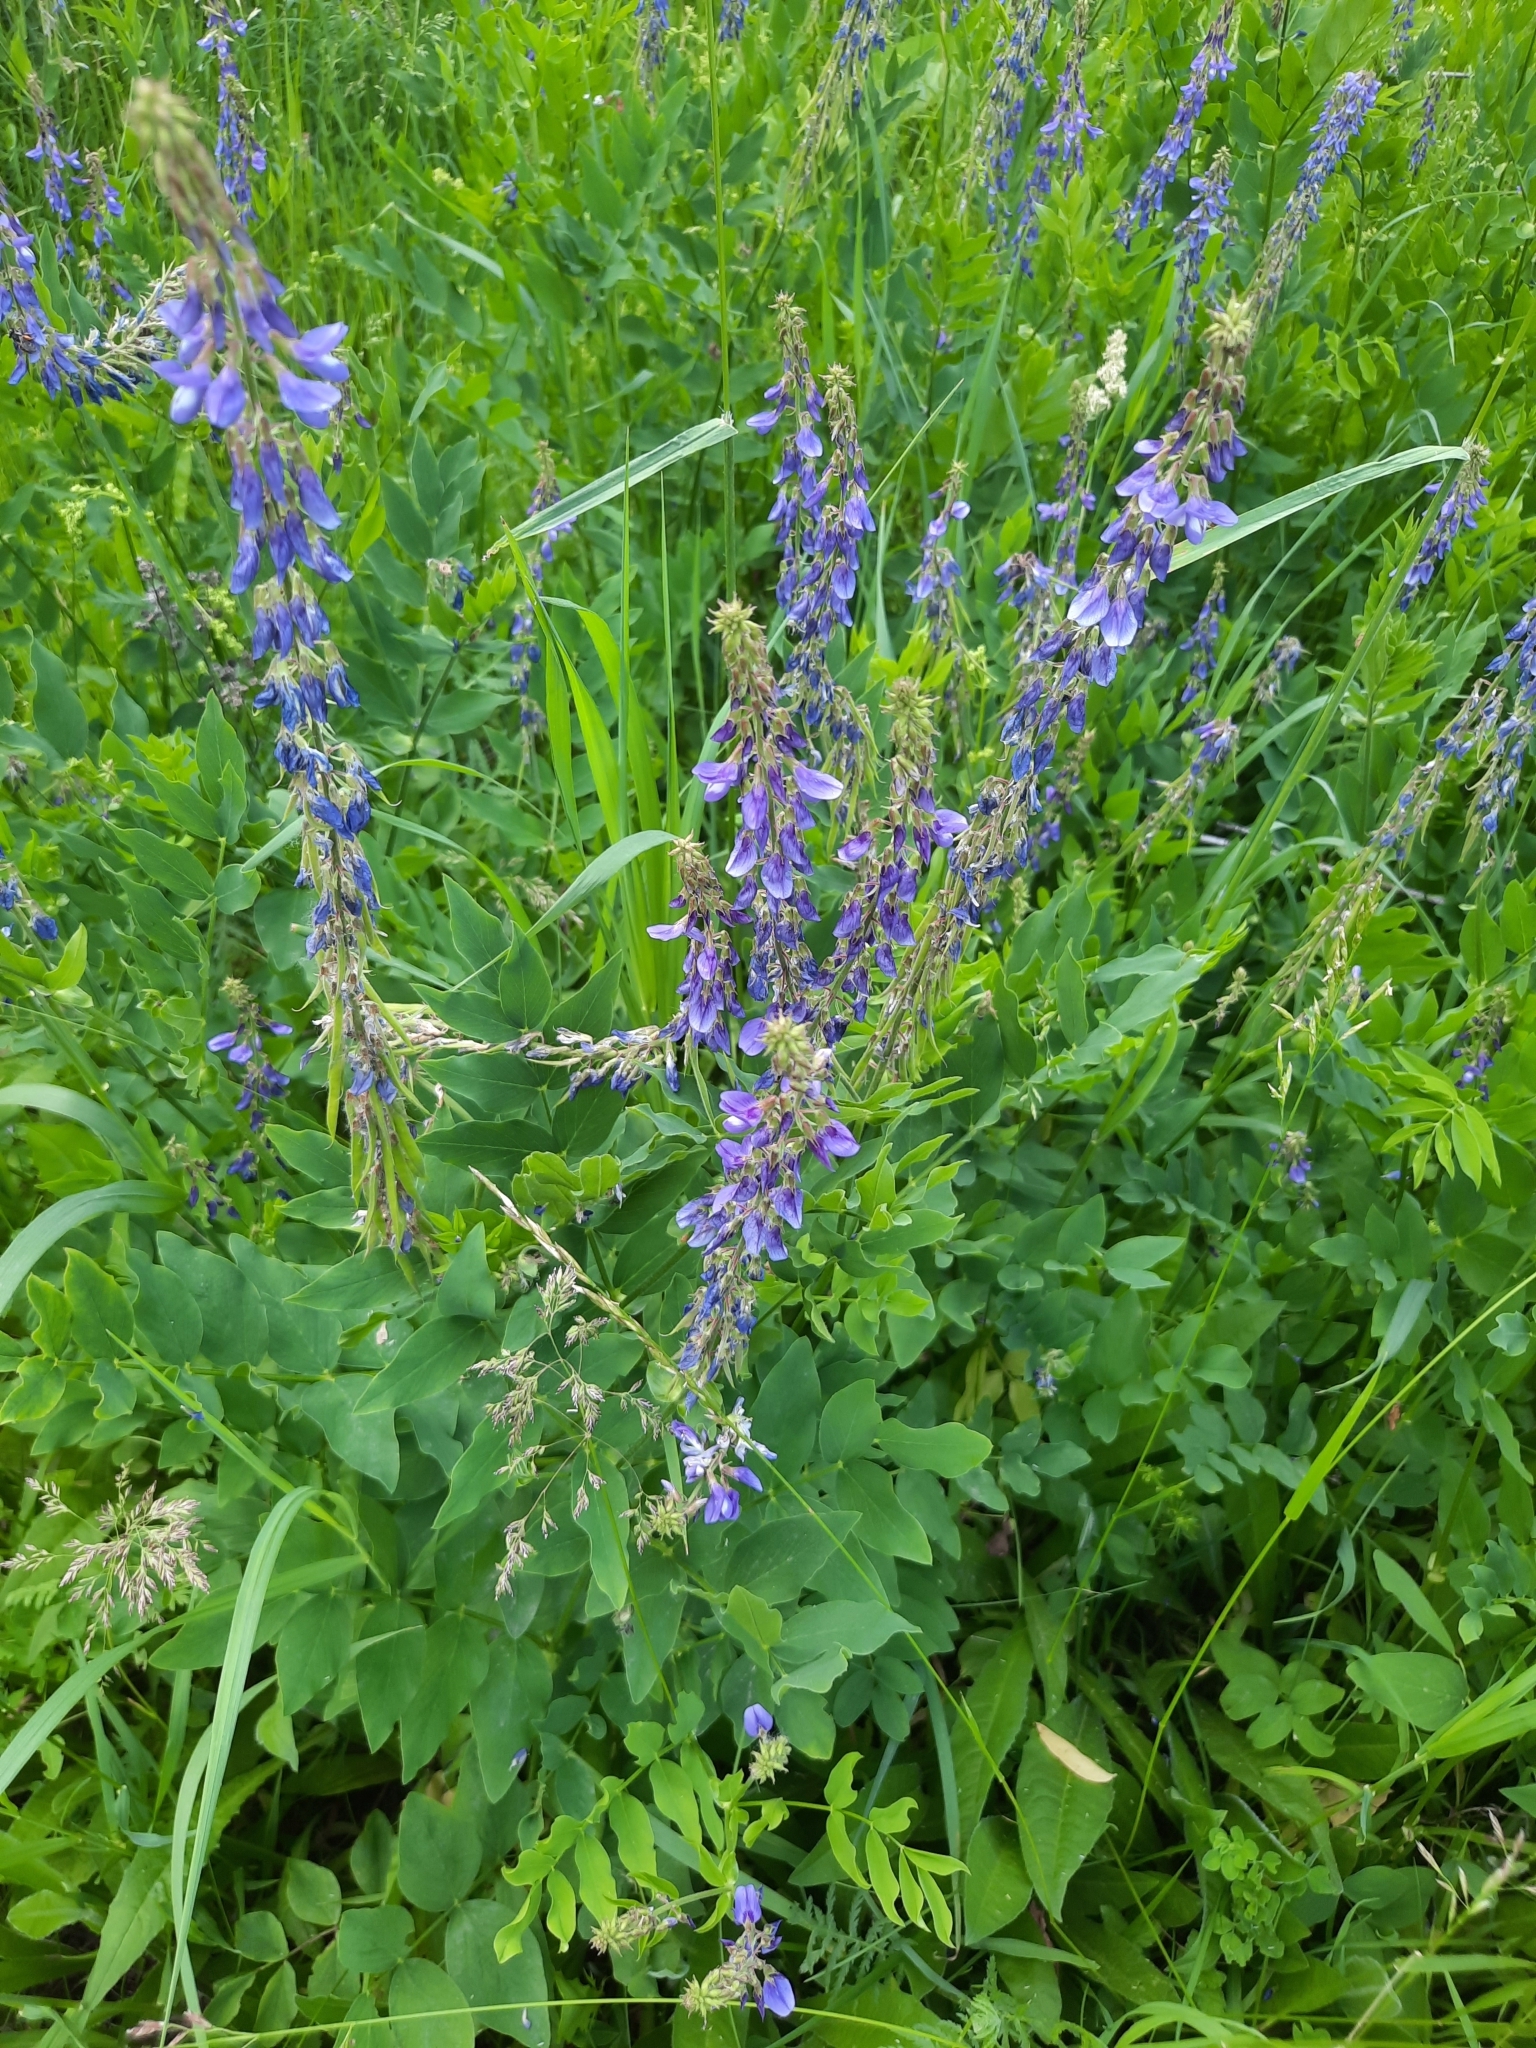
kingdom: Plantae
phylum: Tracheophyta
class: Magnoliopsida
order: Fabales
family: Fabaceae
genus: Galega
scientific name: Galega orientalis
